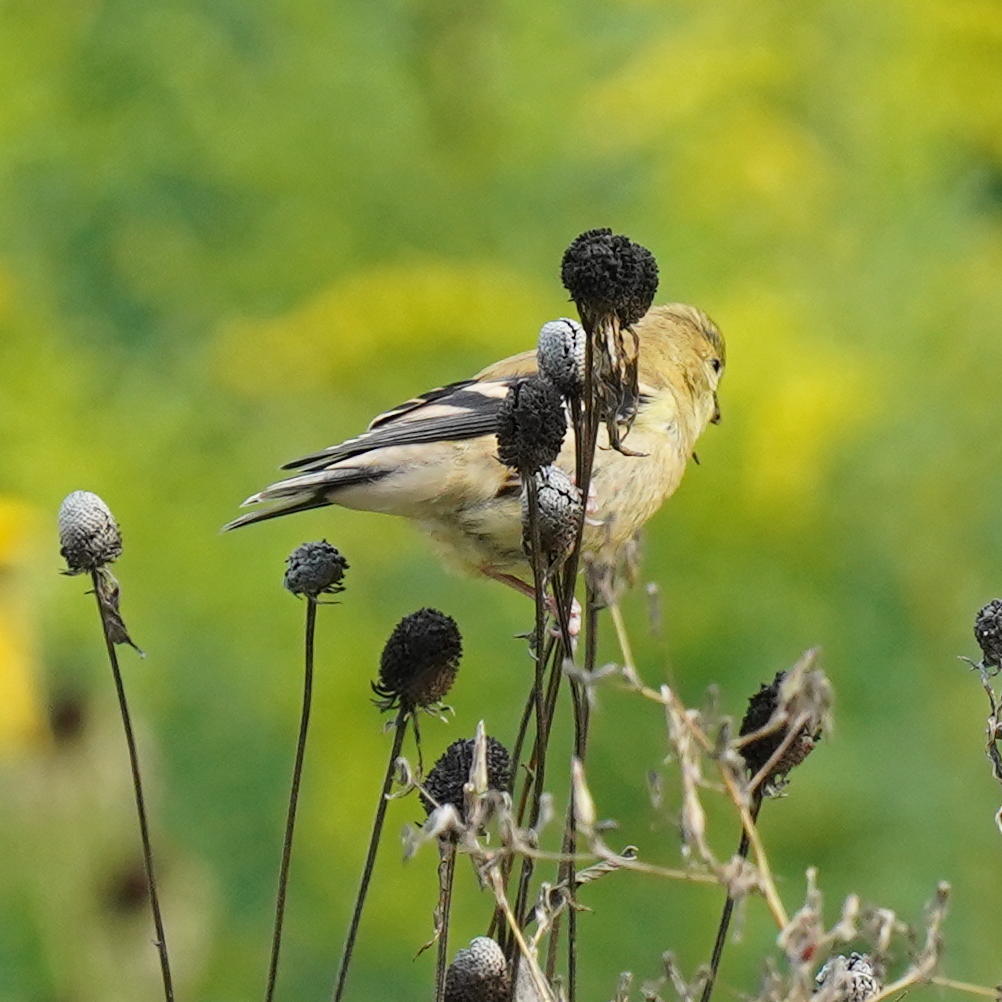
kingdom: Animalia
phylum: Chordata
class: Aves
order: Passeriformes
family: Fringillidae
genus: Spinus
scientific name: Spinus tristis
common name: American goldfinch
